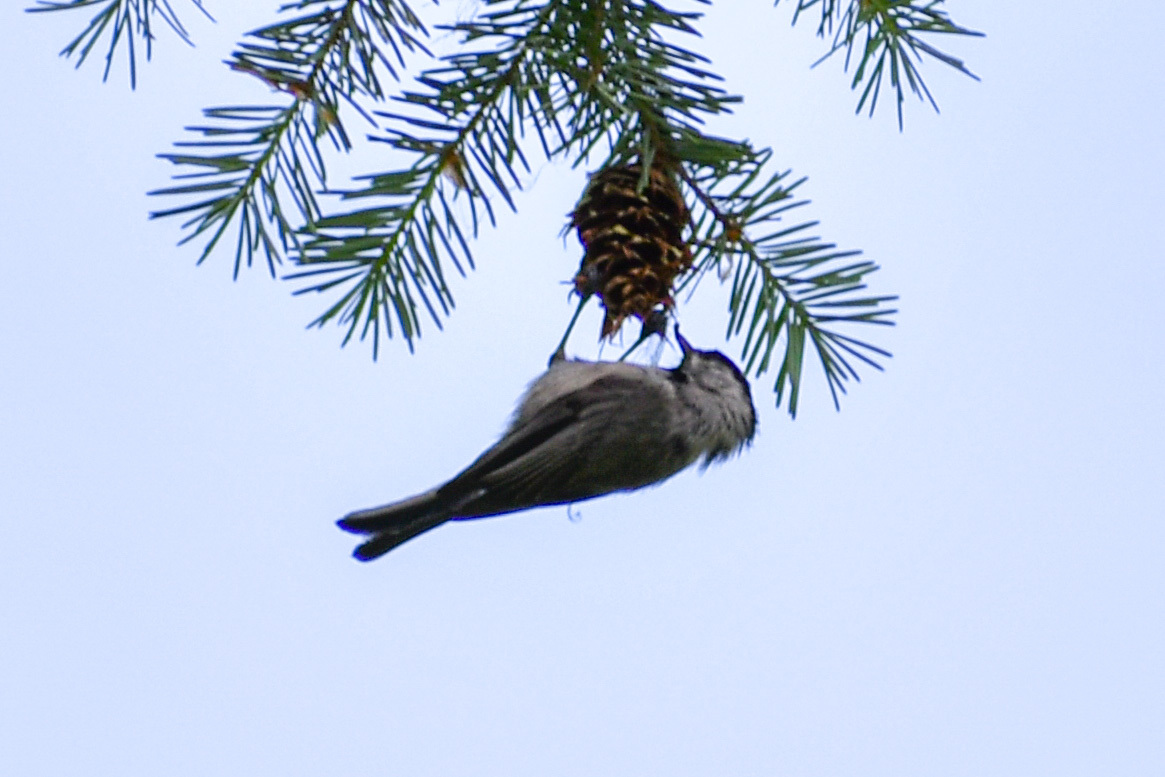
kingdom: Animalia
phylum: Chordata
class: Aves
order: Passeriformes
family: Paridae
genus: Poecile
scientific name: Poecile gambeli
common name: Mountain chickadee
